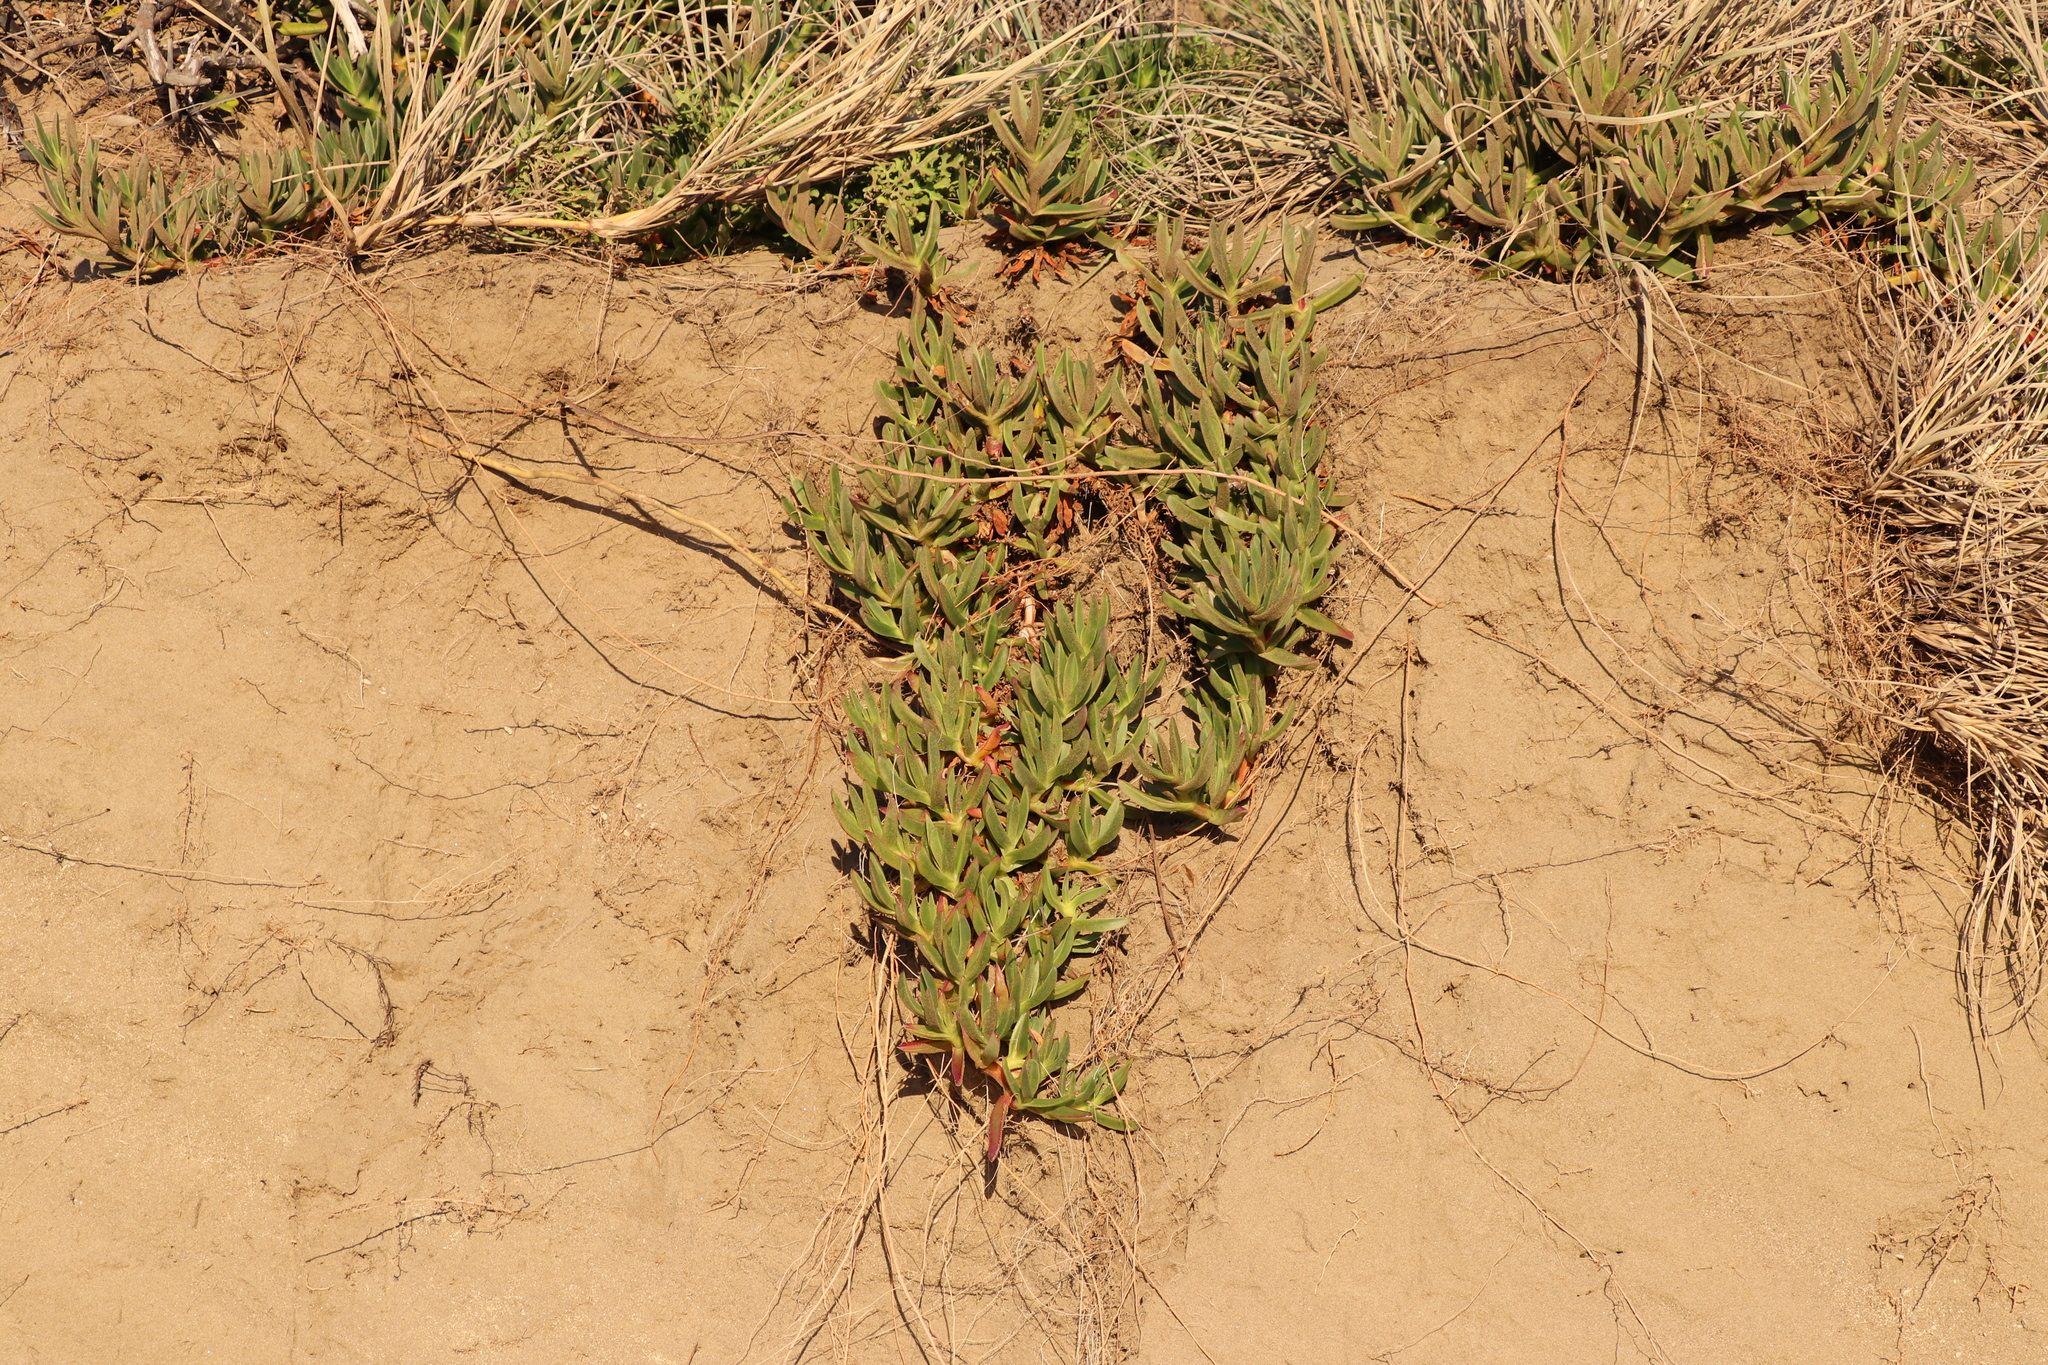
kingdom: Plantae
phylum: Tracheophyta
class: Magnoliopsida
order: Caryophyllales
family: Aizoaceae
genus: Carpobrotus
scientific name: Carpobrotus edulis
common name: Hottentot-fig
